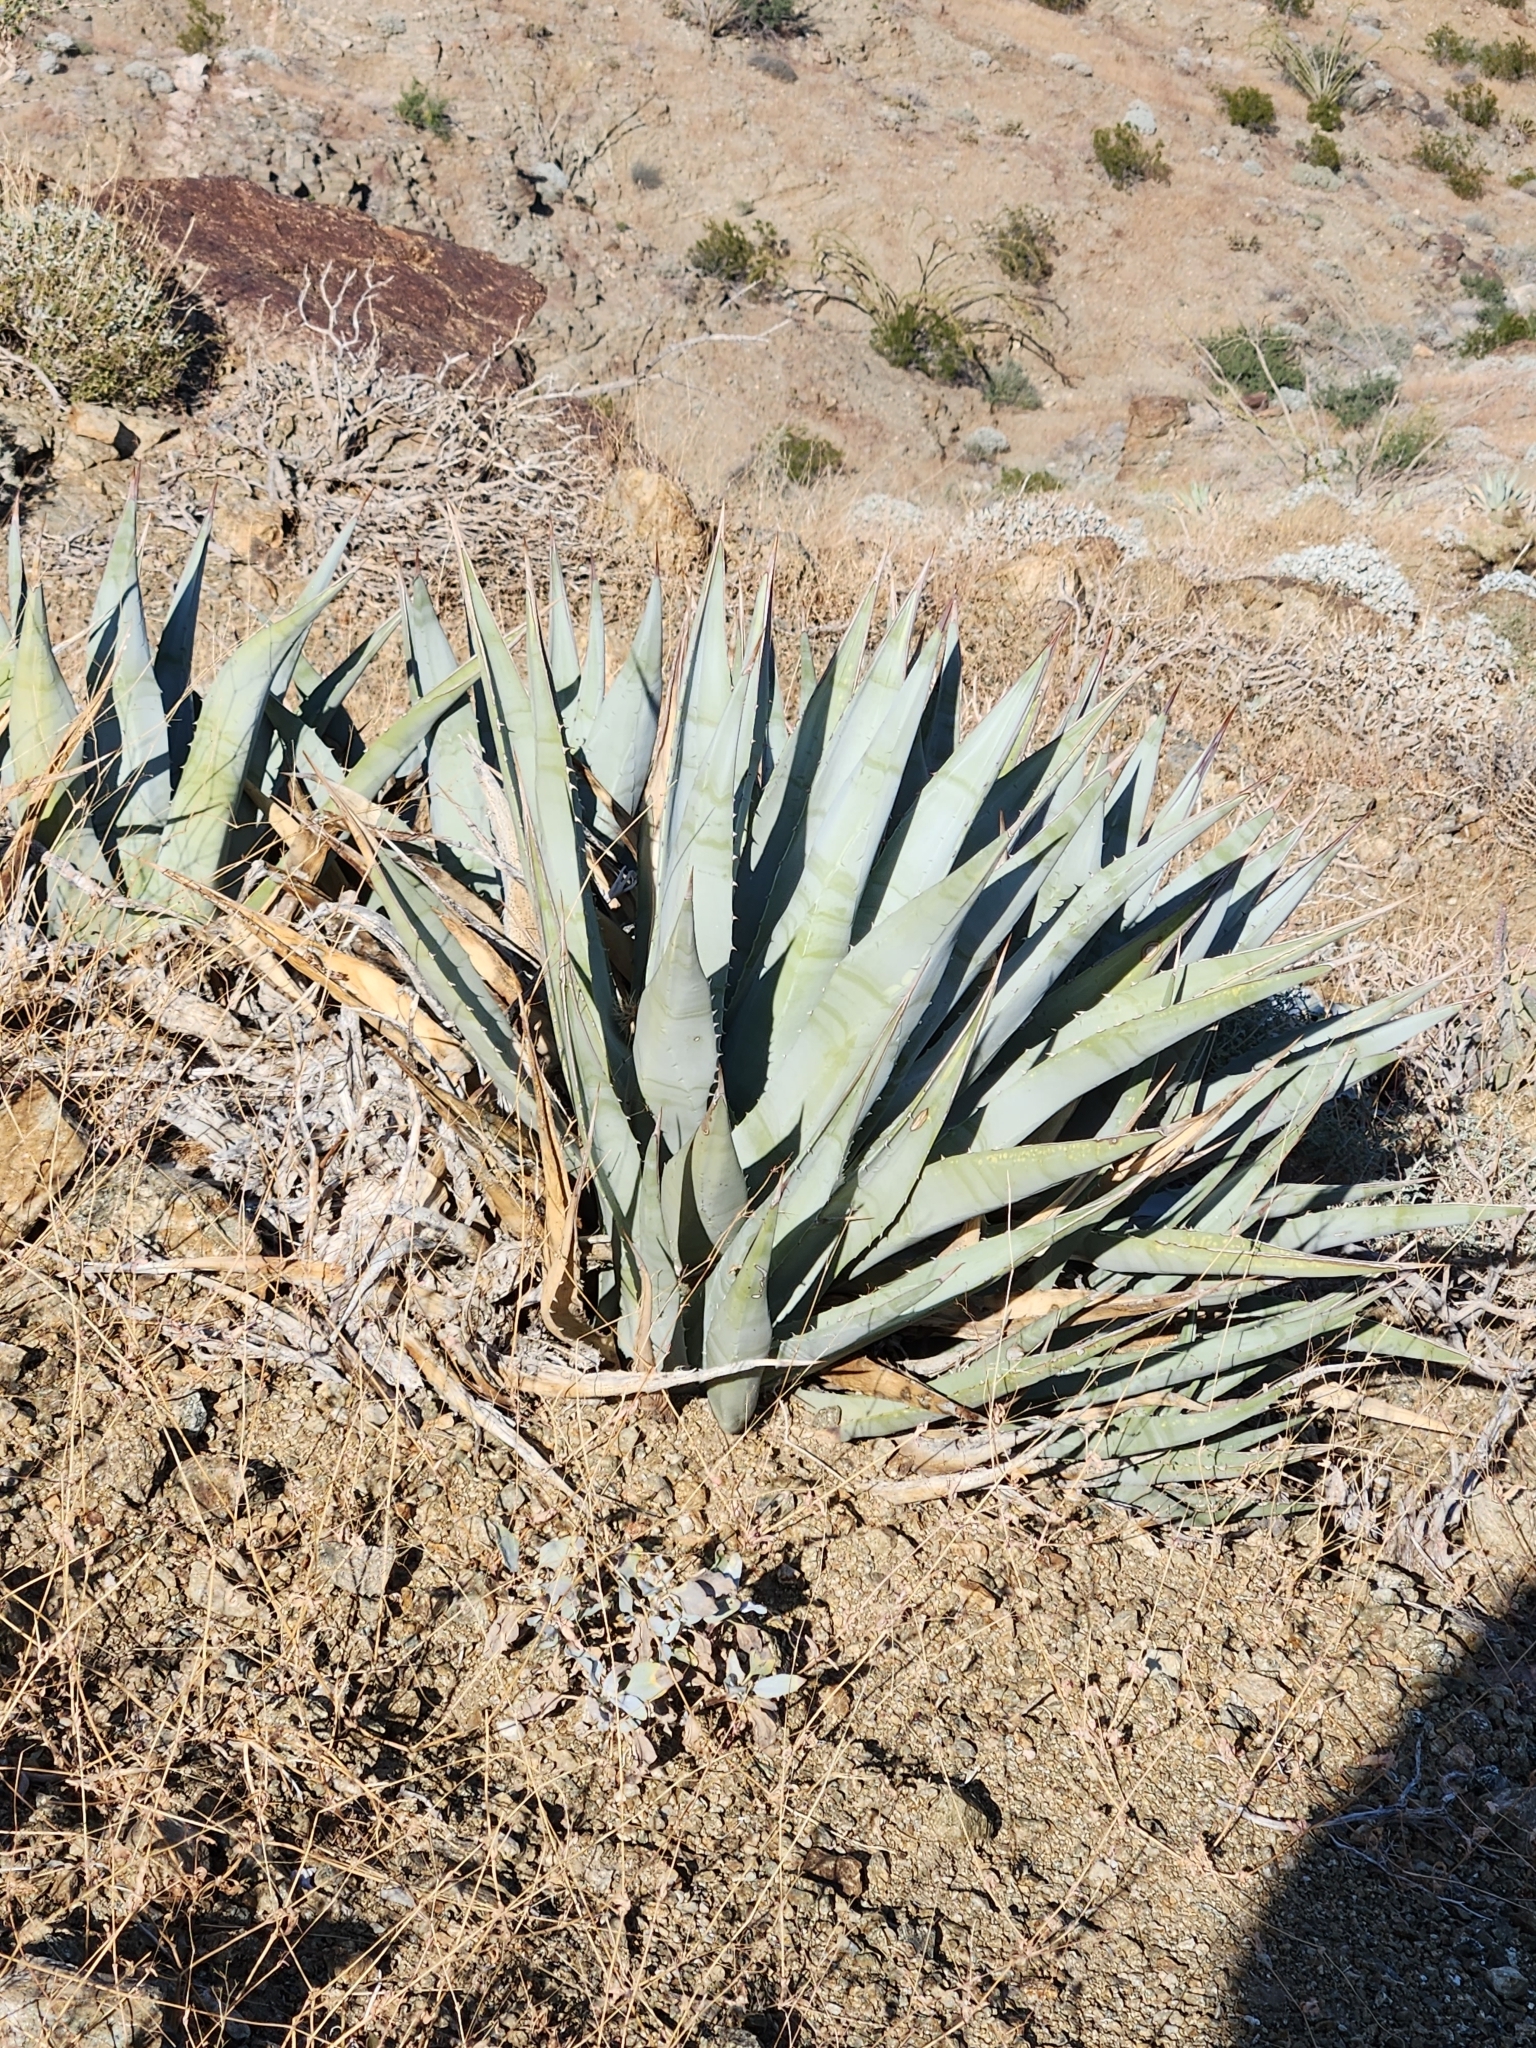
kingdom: Plantae
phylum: Tracheophyta
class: Liliopsida
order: Asparagales
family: Asparagaceae
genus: Agave
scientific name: Agave deserti
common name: Desert agave
